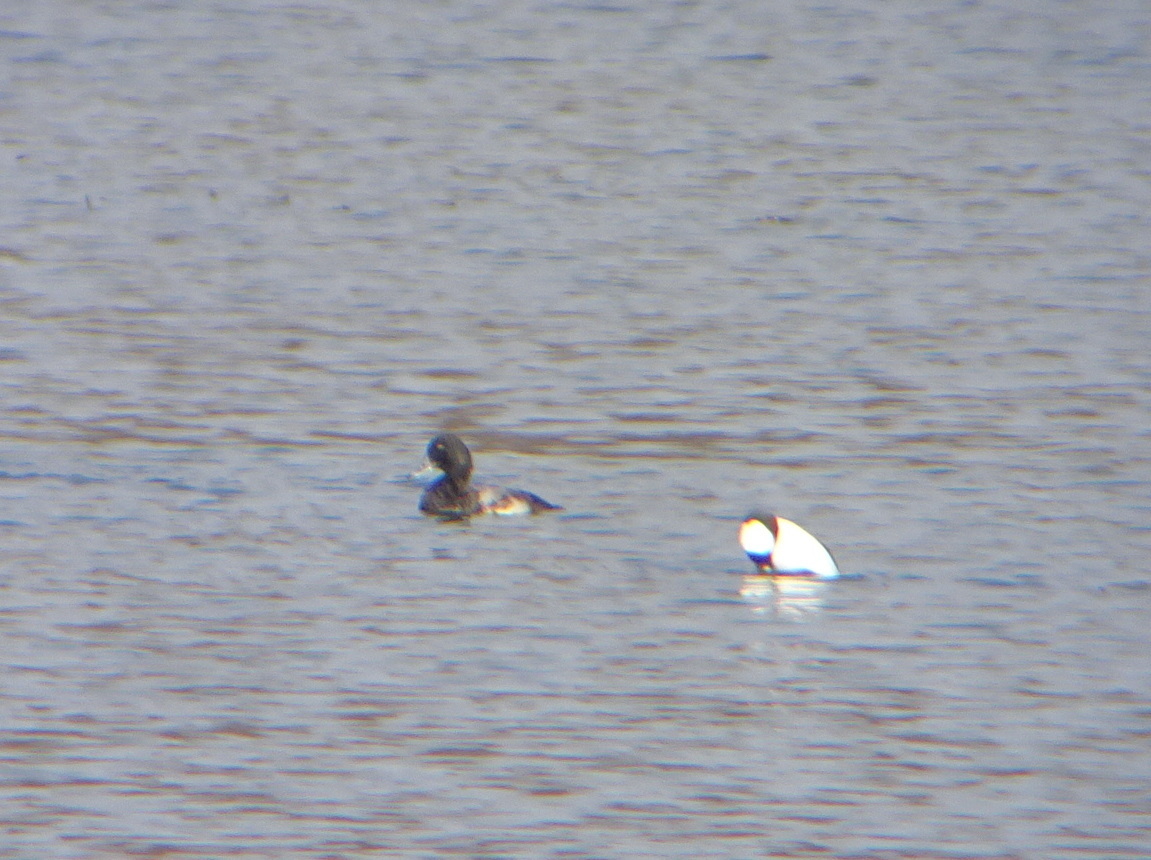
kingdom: Animalia
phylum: Chordata
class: Aves
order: Anseriformes
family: Anatidae
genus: Aythya
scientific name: Aythya marila
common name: Greater scaup
